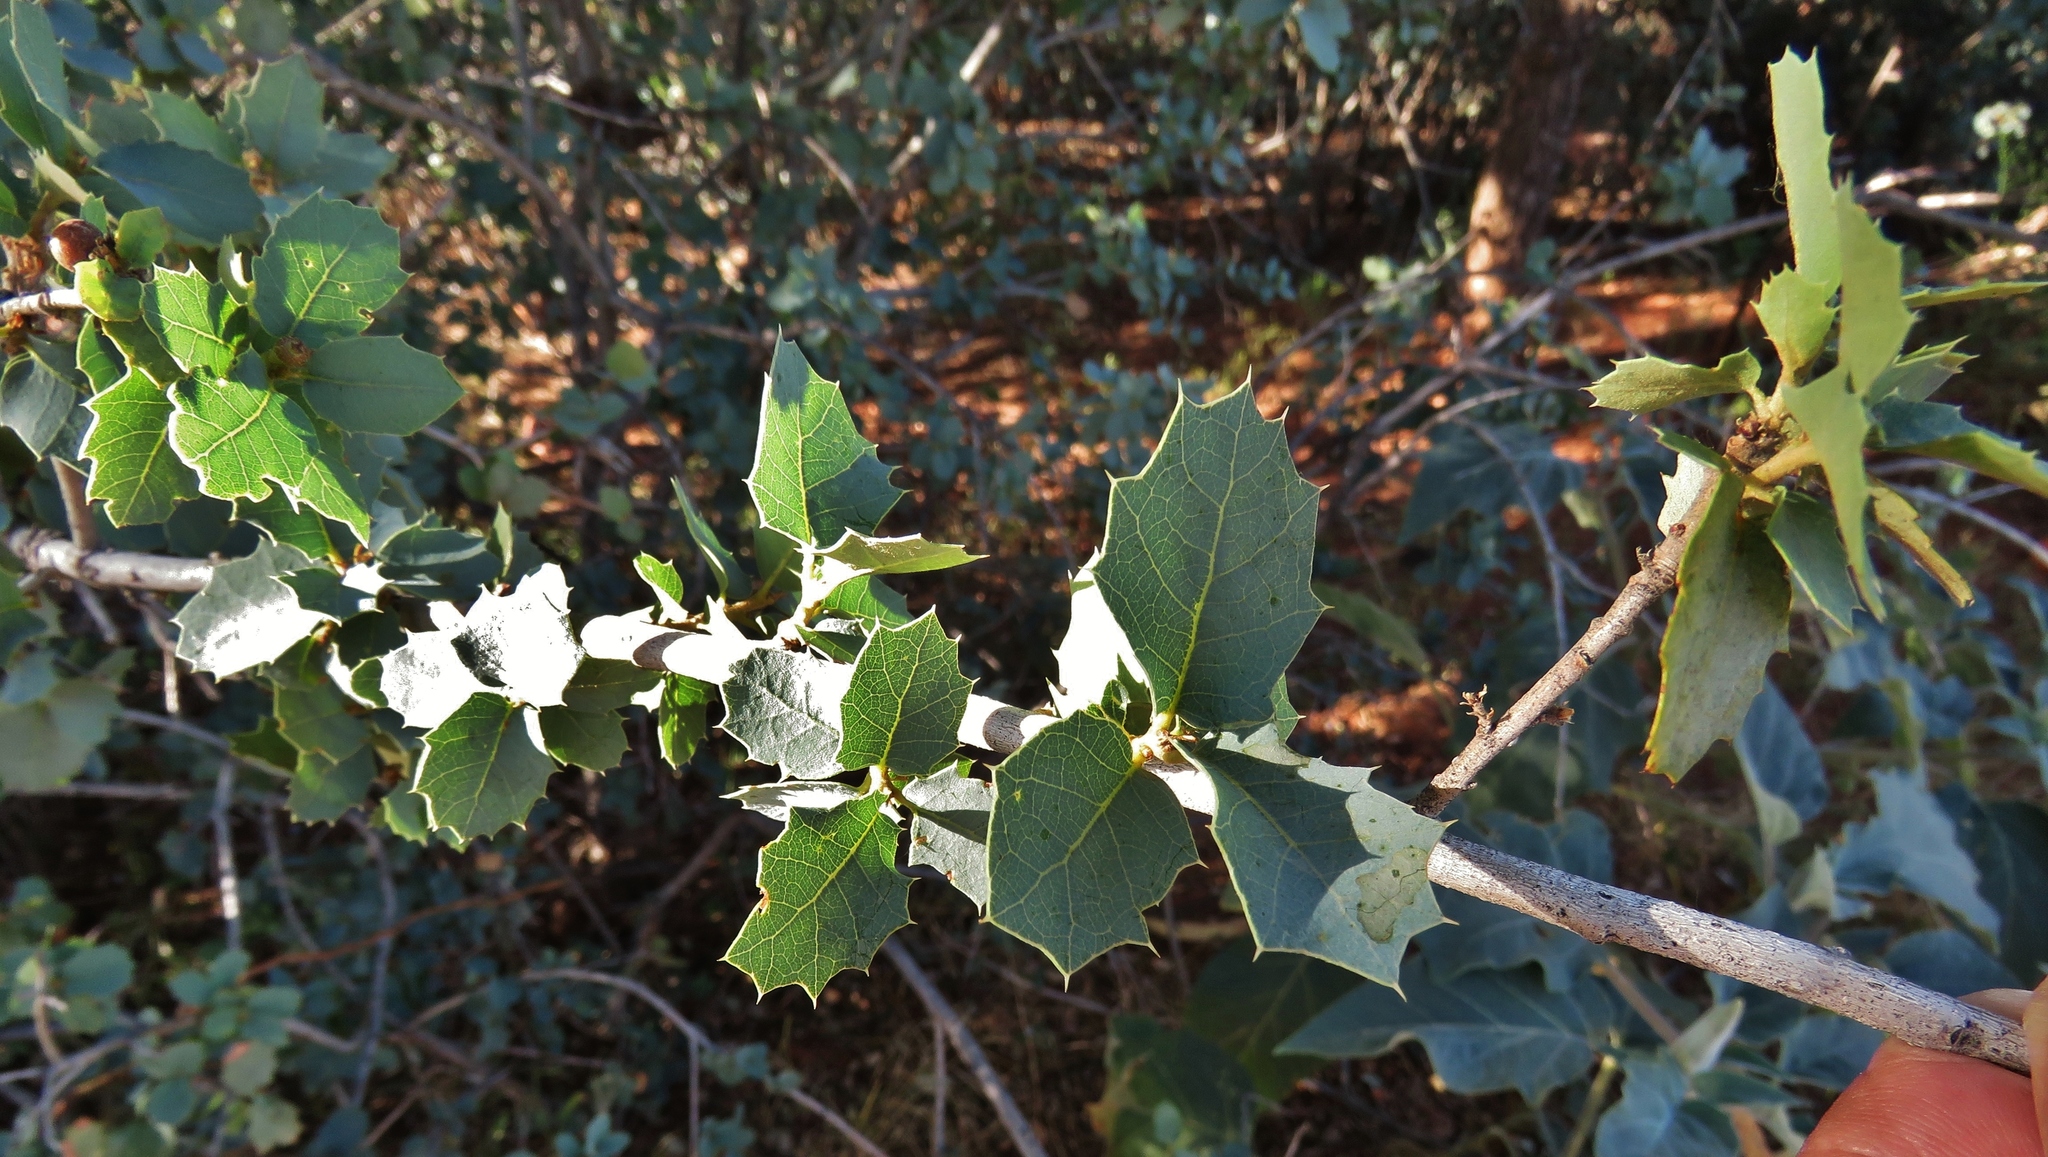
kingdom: Plantae
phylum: Tracheophyta
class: Magnoliopsida
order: Fagales
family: Fagaceae
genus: Quercus
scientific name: Quercus turbinella
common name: Sonoran scrub oak
